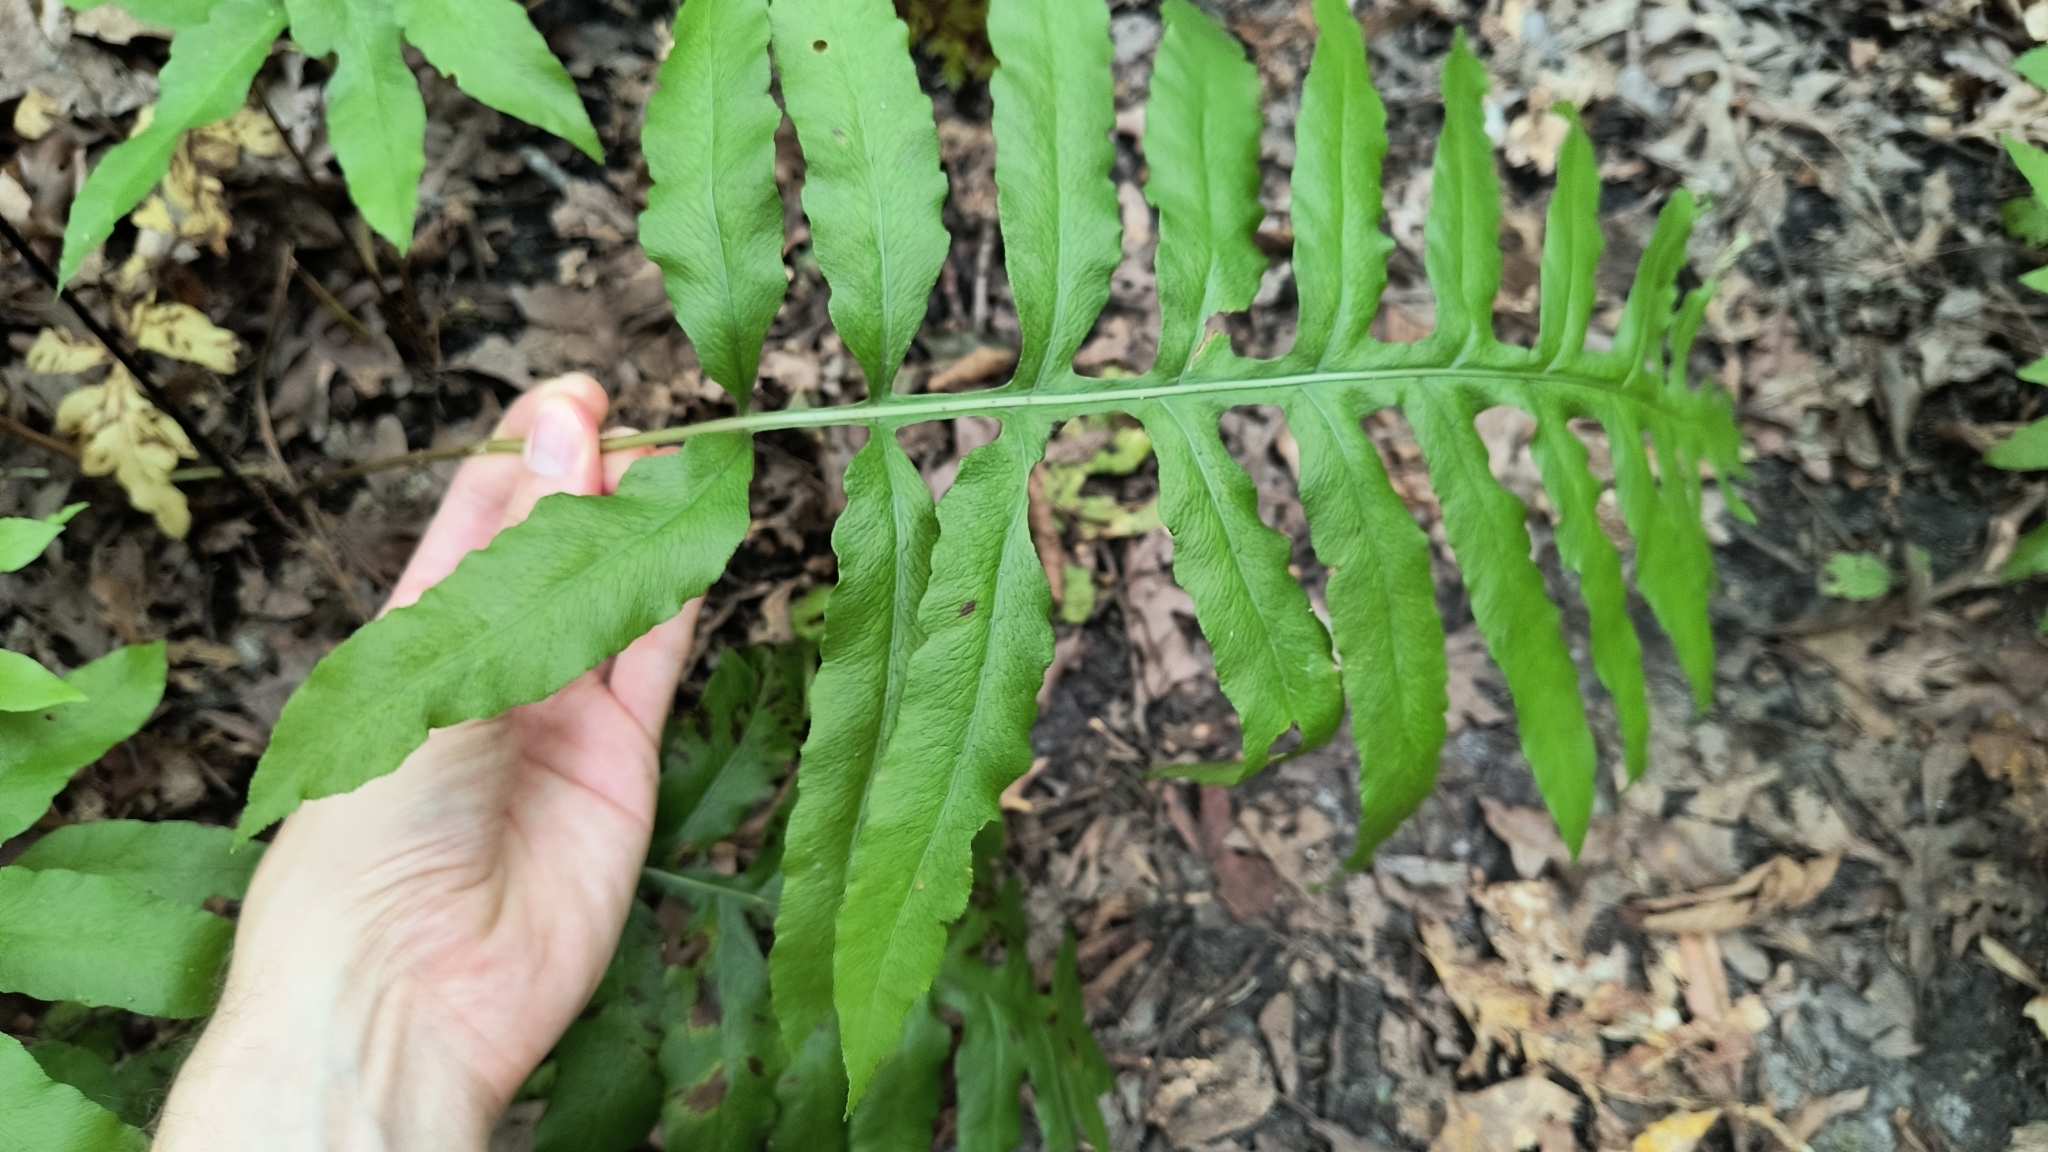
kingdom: Plantae
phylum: Tracheophyta
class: Polypodiopsida
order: Polypodiales
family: Blechnaceae
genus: Lorinseria
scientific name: Lorinseria areolata
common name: Dwarf chain fern
